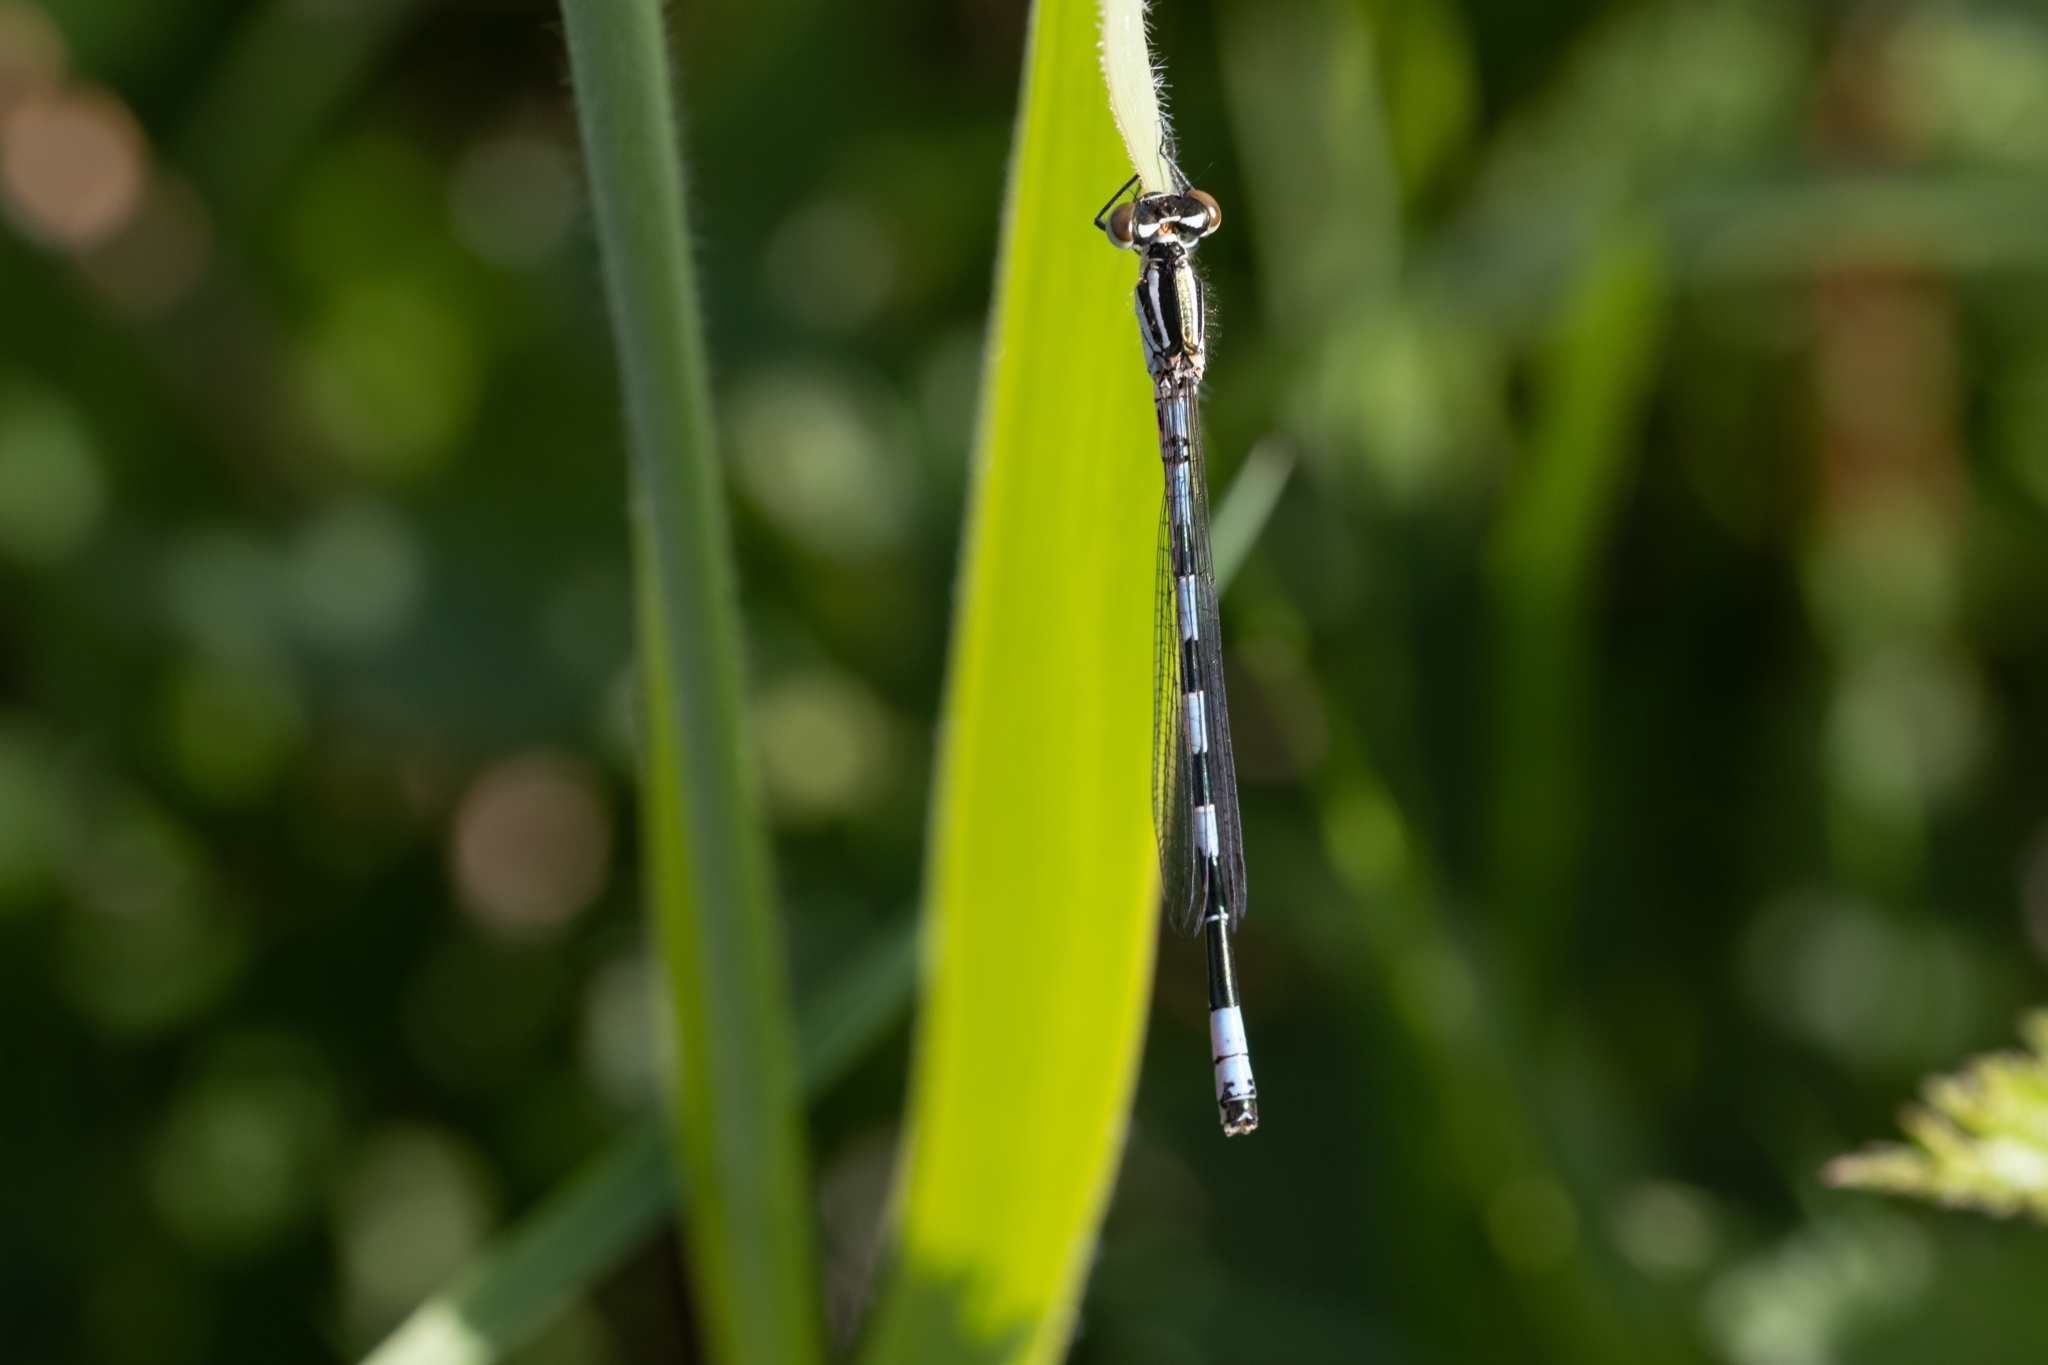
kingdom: Animalia
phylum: Arthropoda
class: Insecta
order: Odonata
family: Coenagrionidae
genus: Coenagrion
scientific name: Coenagrion hastulatum
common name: Spearhead bluet
